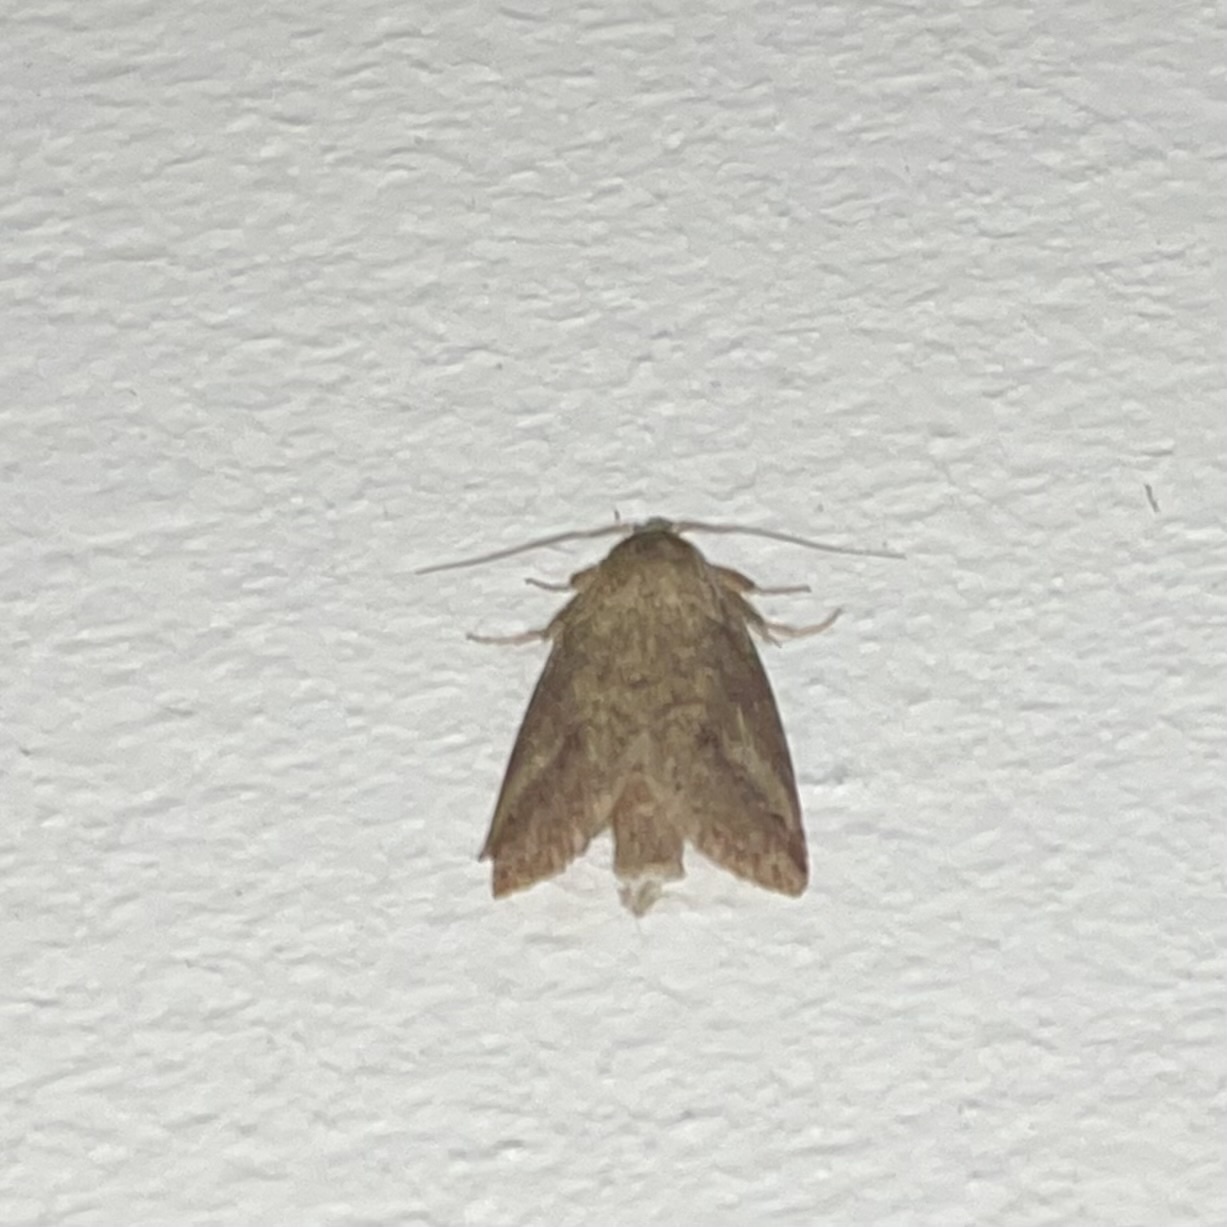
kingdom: Animalia
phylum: Arthropoda
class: Insecta
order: Lepidoptera
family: Notodontidae
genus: Phastia
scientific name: Phastia basalis
